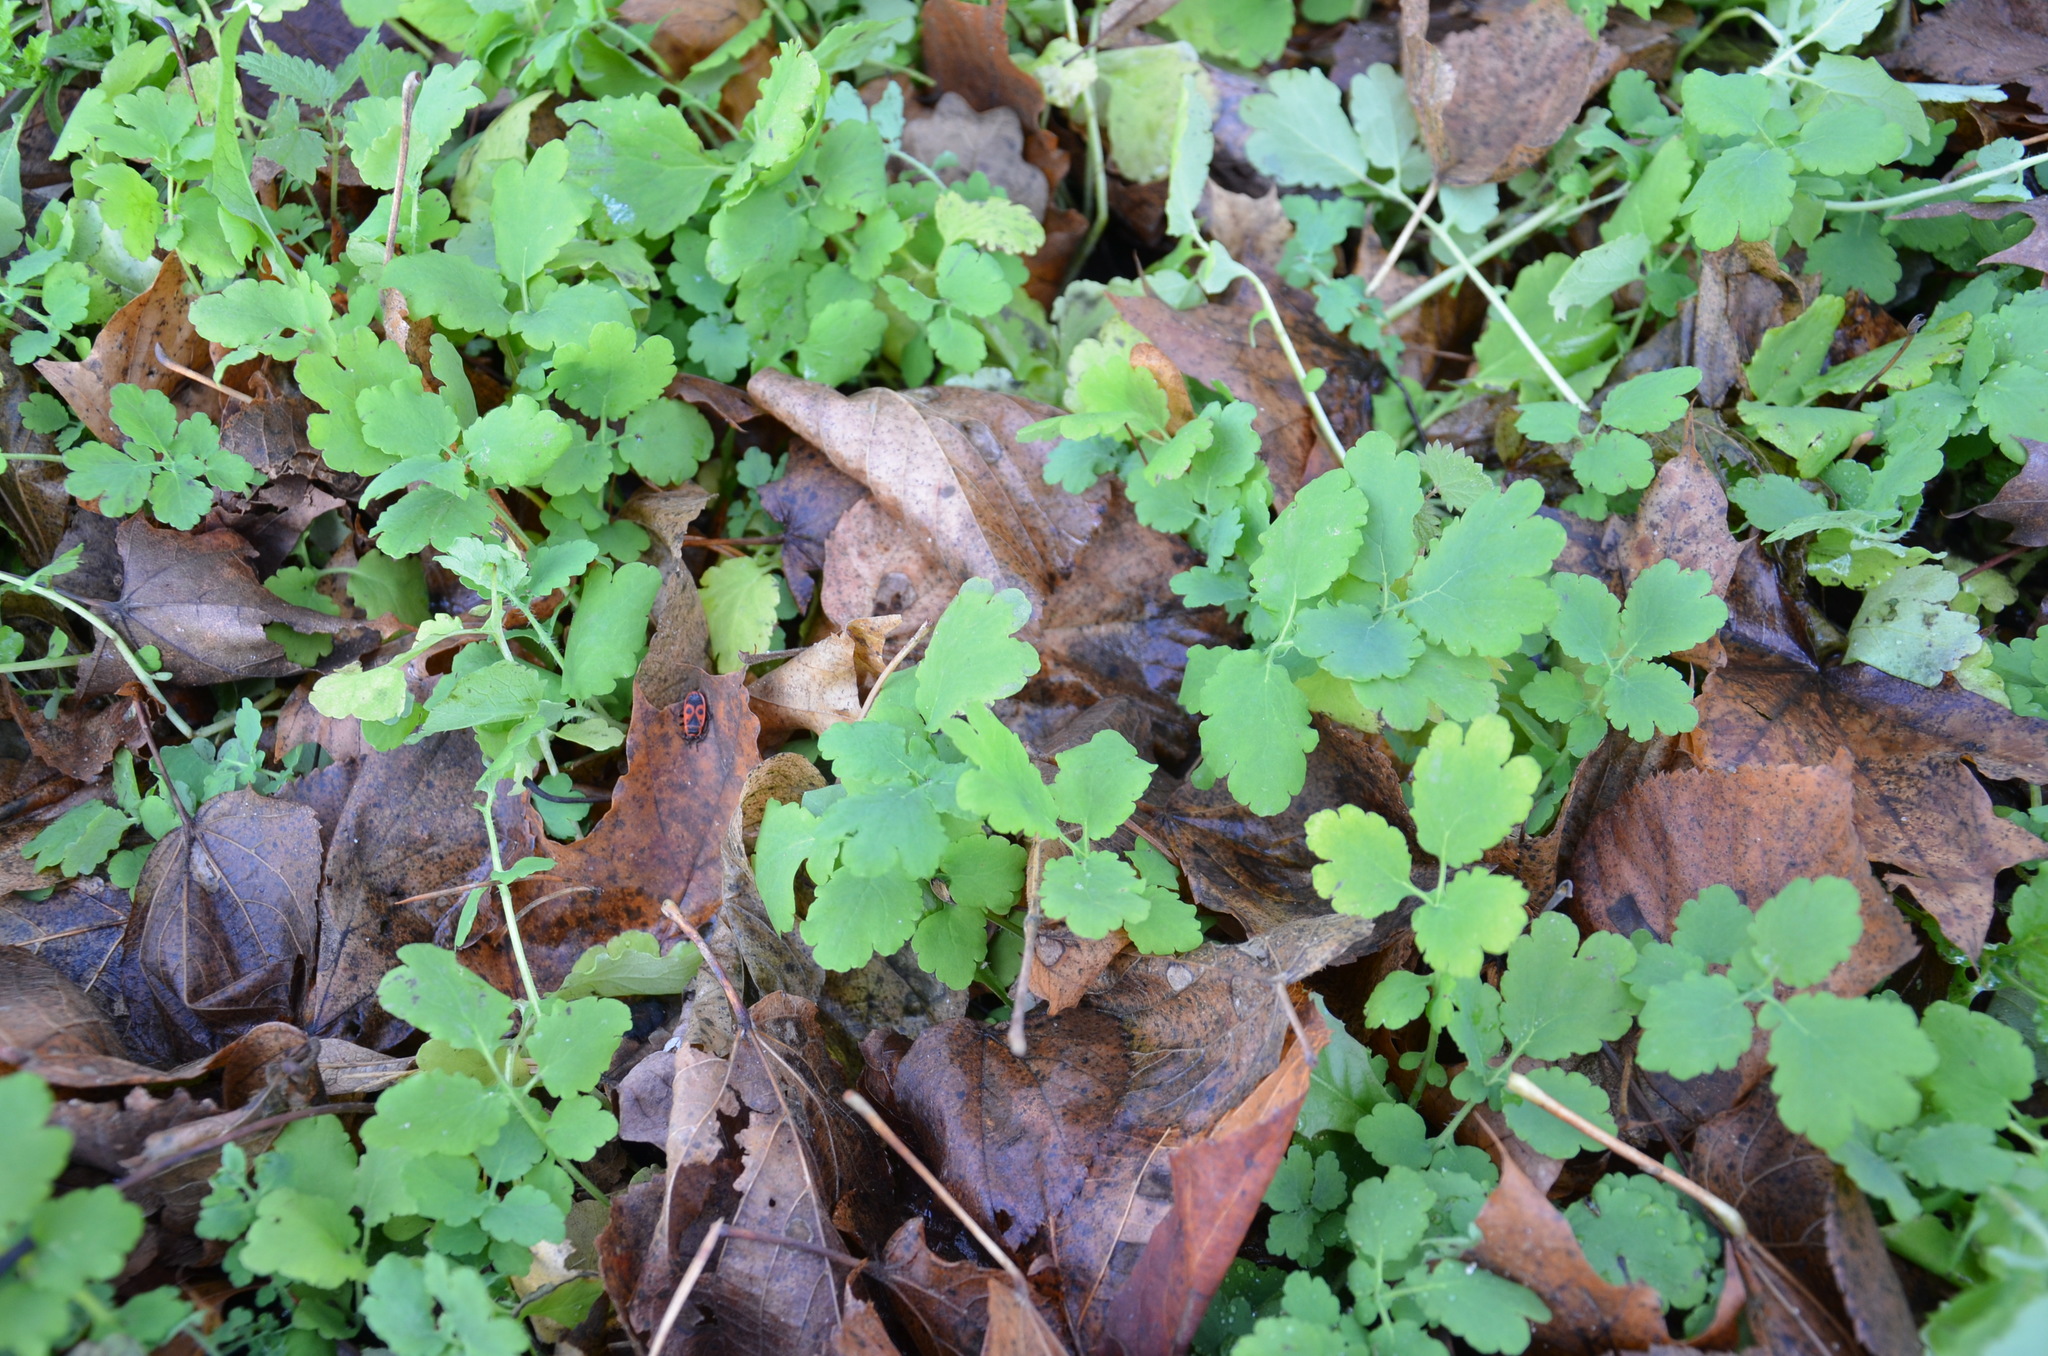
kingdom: Plantae
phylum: Tracheophyta
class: Magnoliopsida
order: Ranunculales
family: Papaveraceae
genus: Chelidonium
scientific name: Chelidonium majus
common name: Greater celandine
